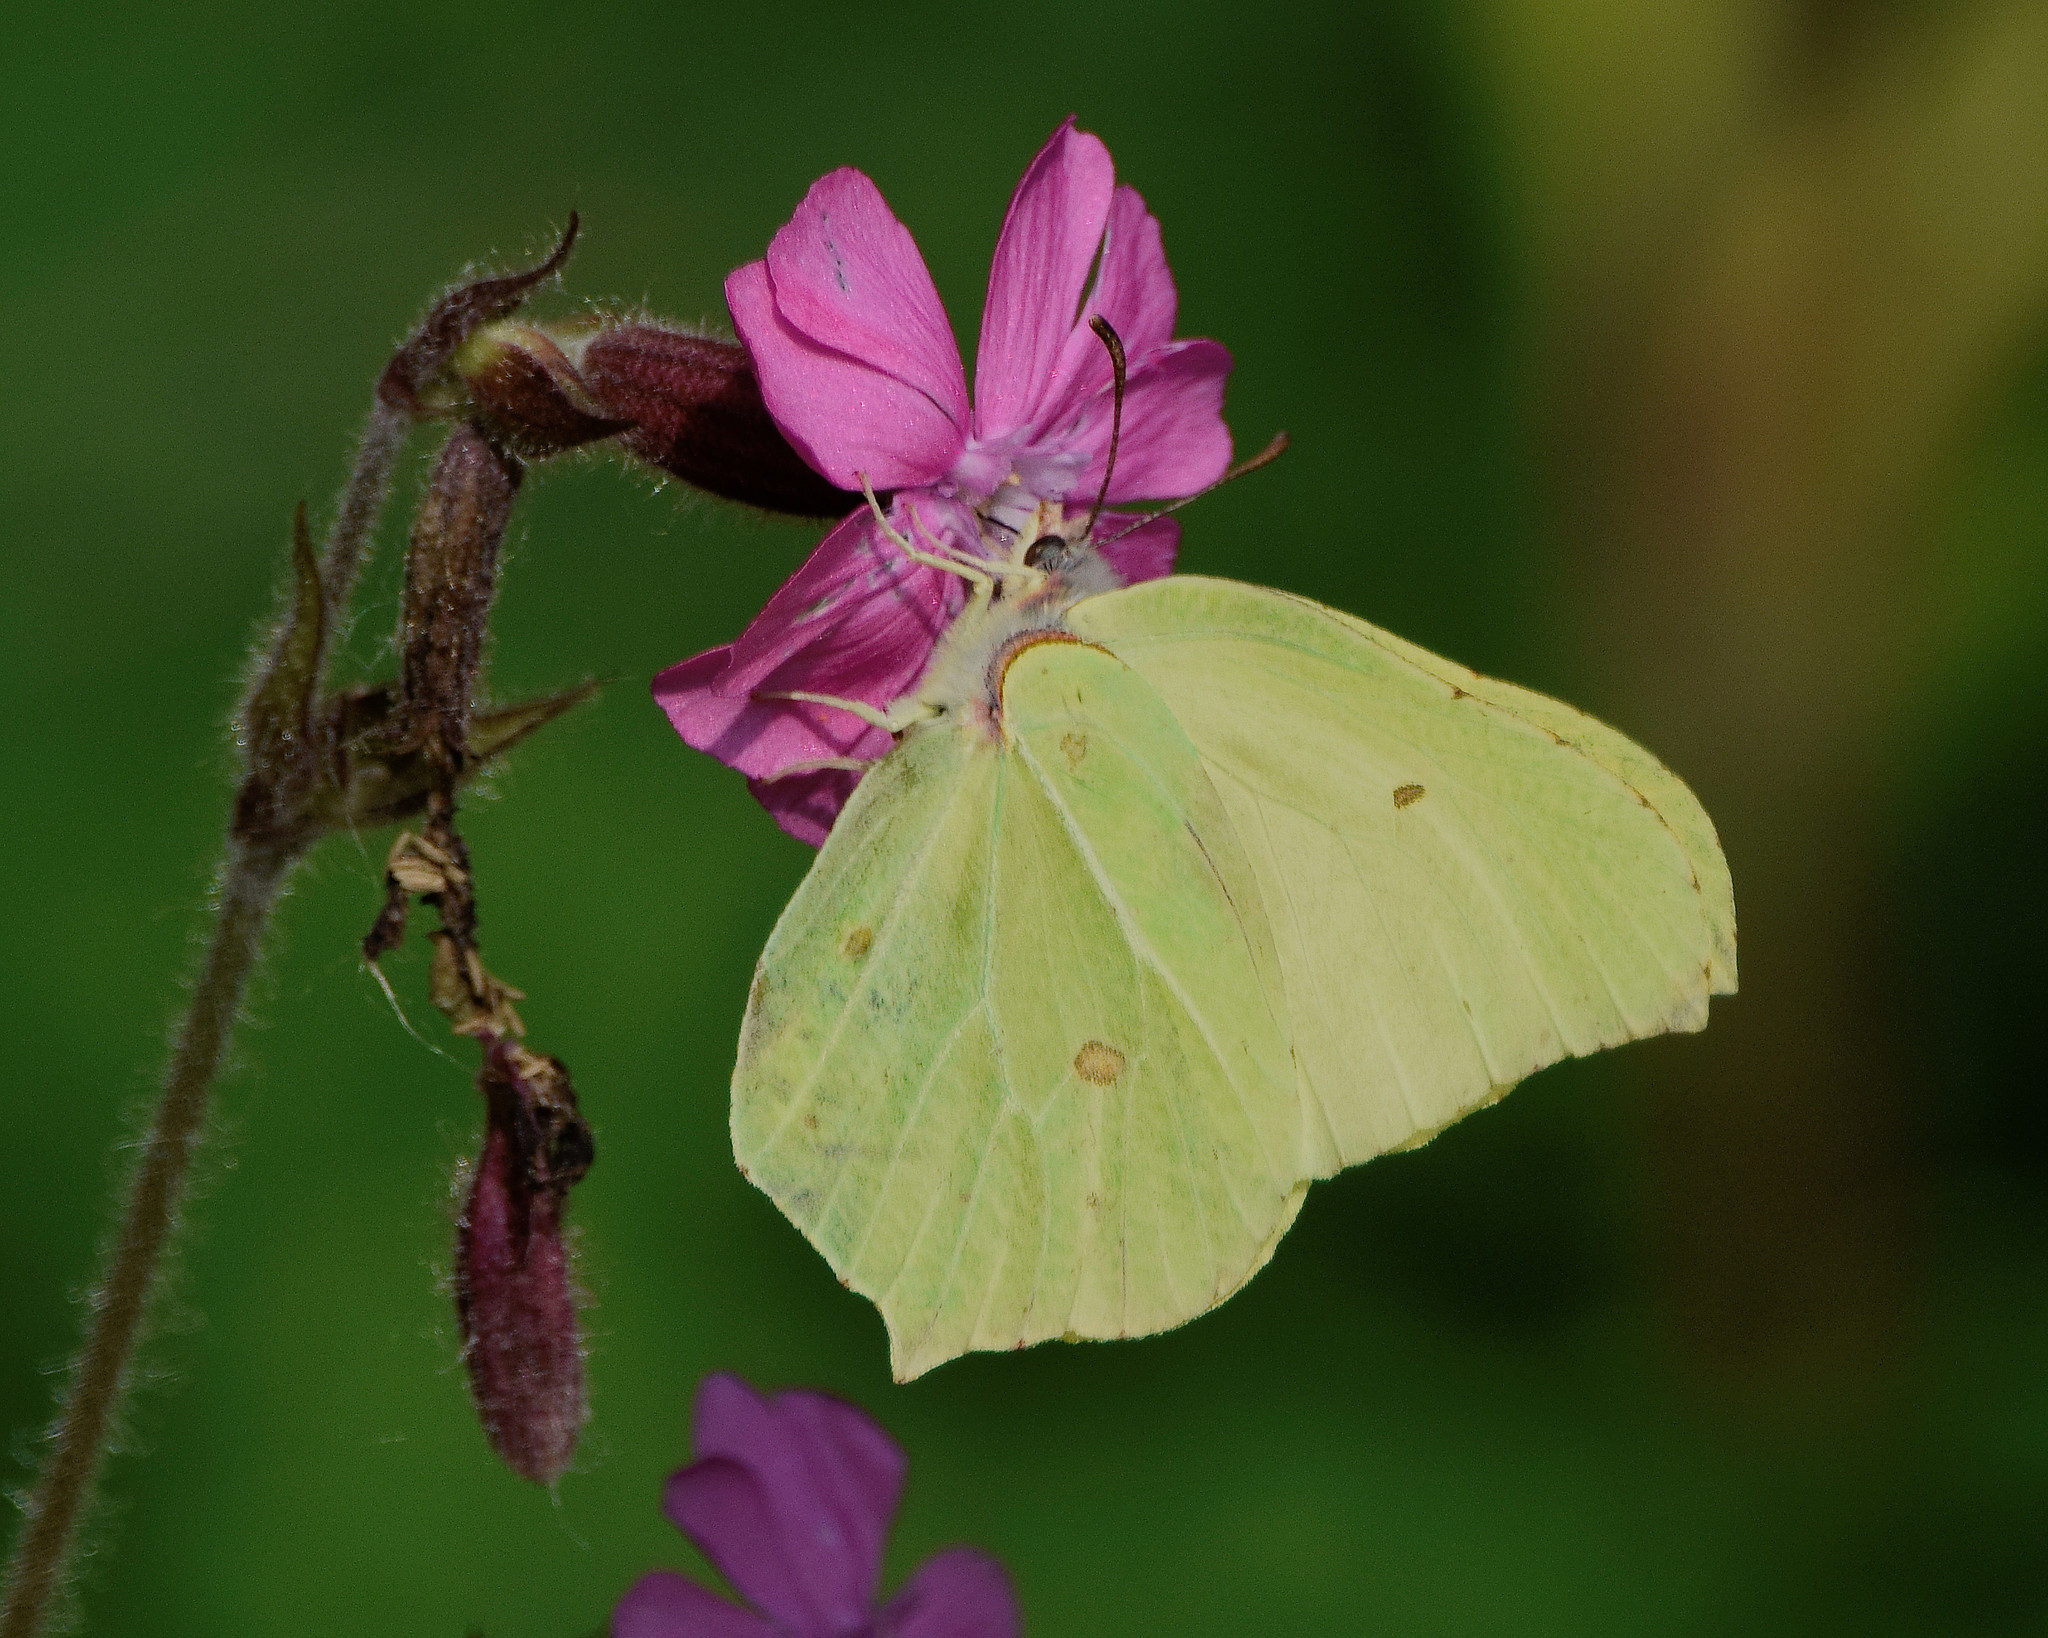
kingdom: Animalia
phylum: Arthropoda
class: Insecta
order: Lepidoptera
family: Pieridae
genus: Gonepteryx
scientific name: Gonepteryx rhamni
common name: Brimstone
